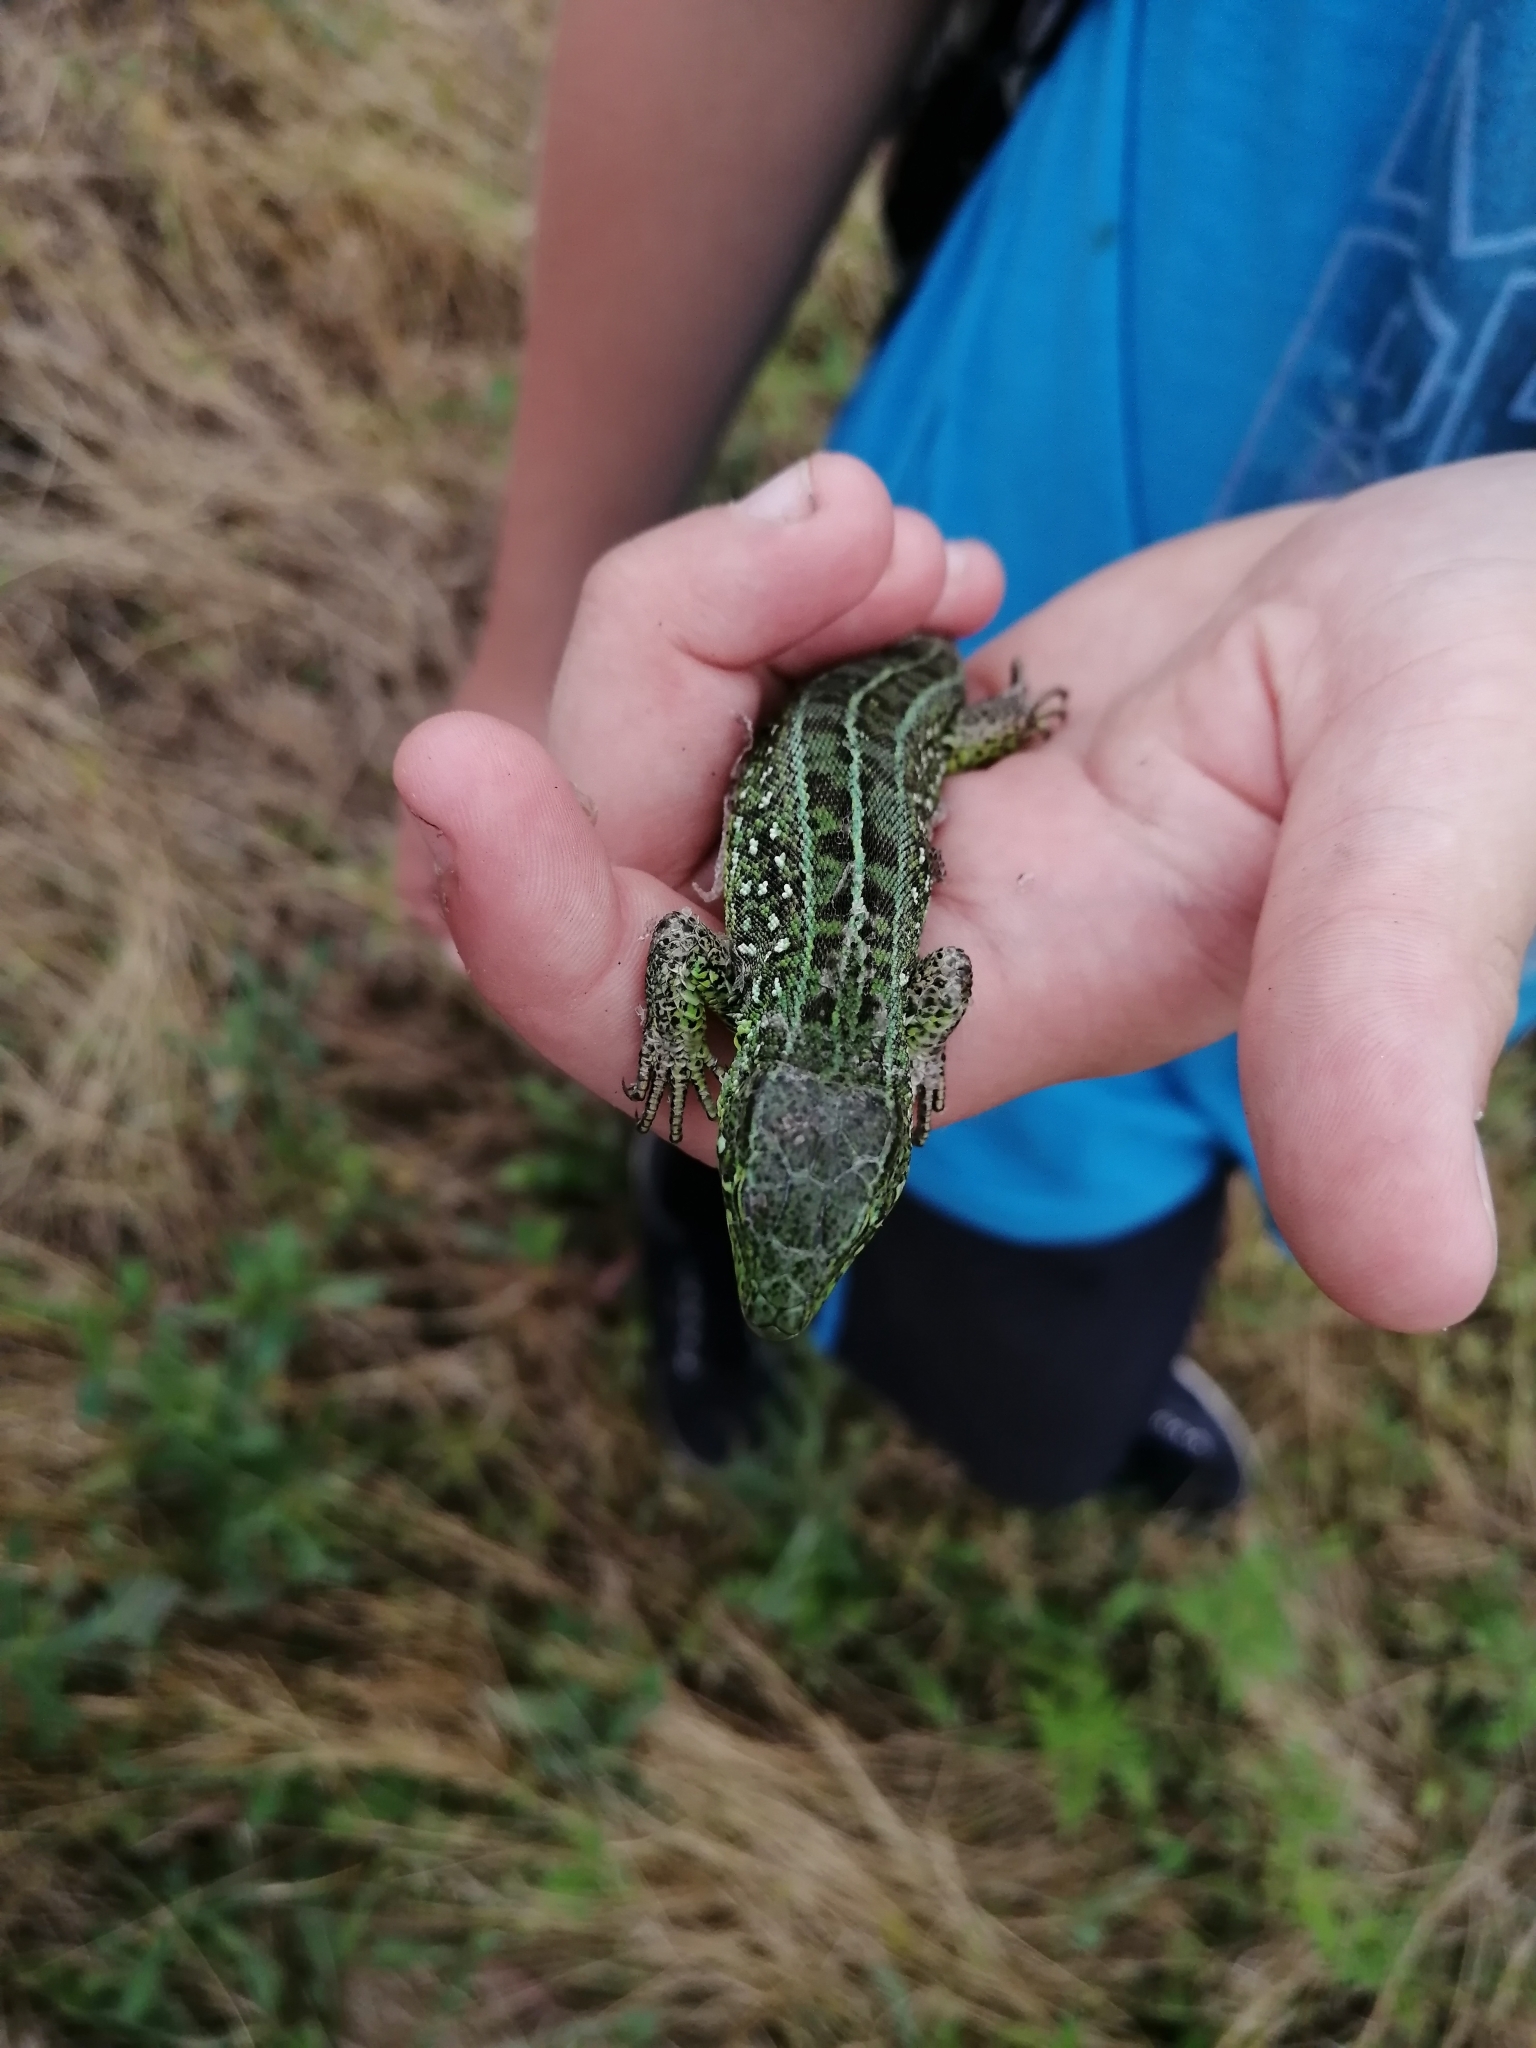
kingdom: Animalia
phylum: Chordata
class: Squamata
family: Lacertidae
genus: Lacerta
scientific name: Lacerta agilis
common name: Sand lizard
